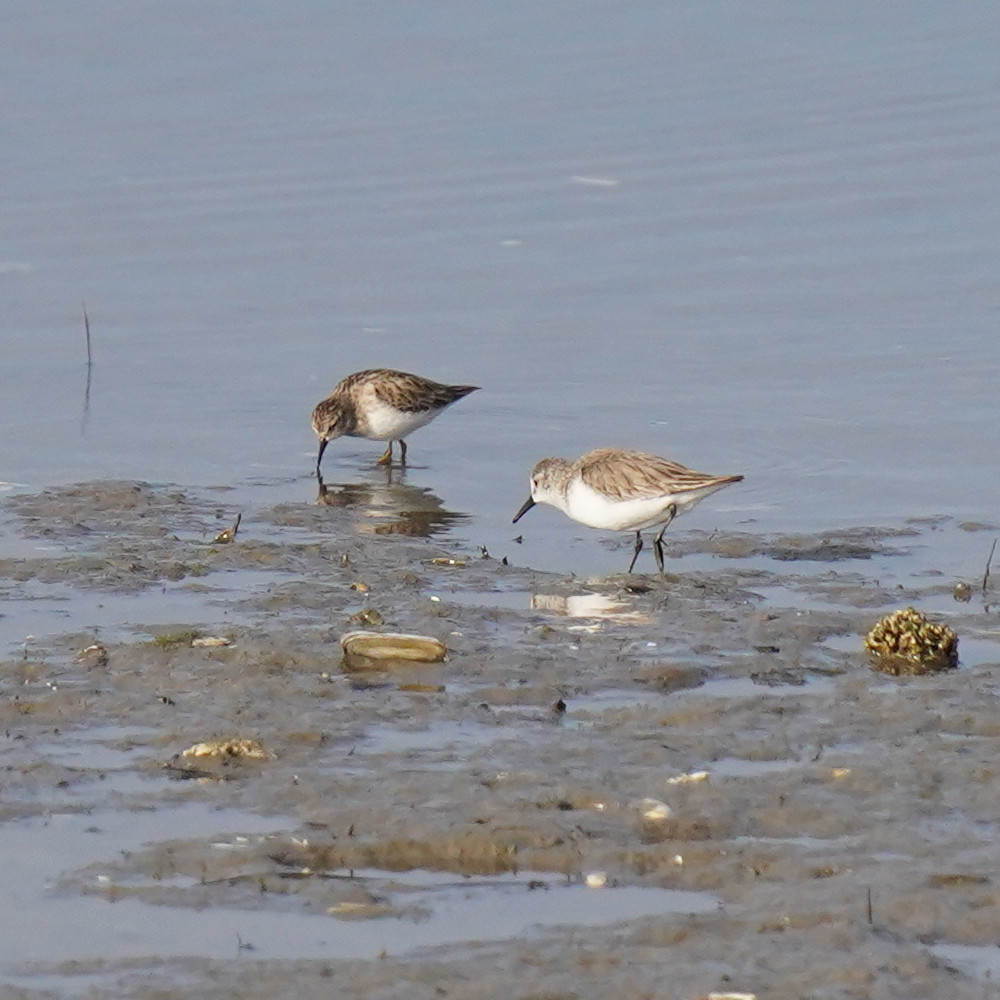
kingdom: Animalia
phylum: Chordata
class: Aves
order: Charadriiformes
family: Scolopacidae
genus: Calidris
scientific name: Calidris mauri
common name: Western sandpiper
